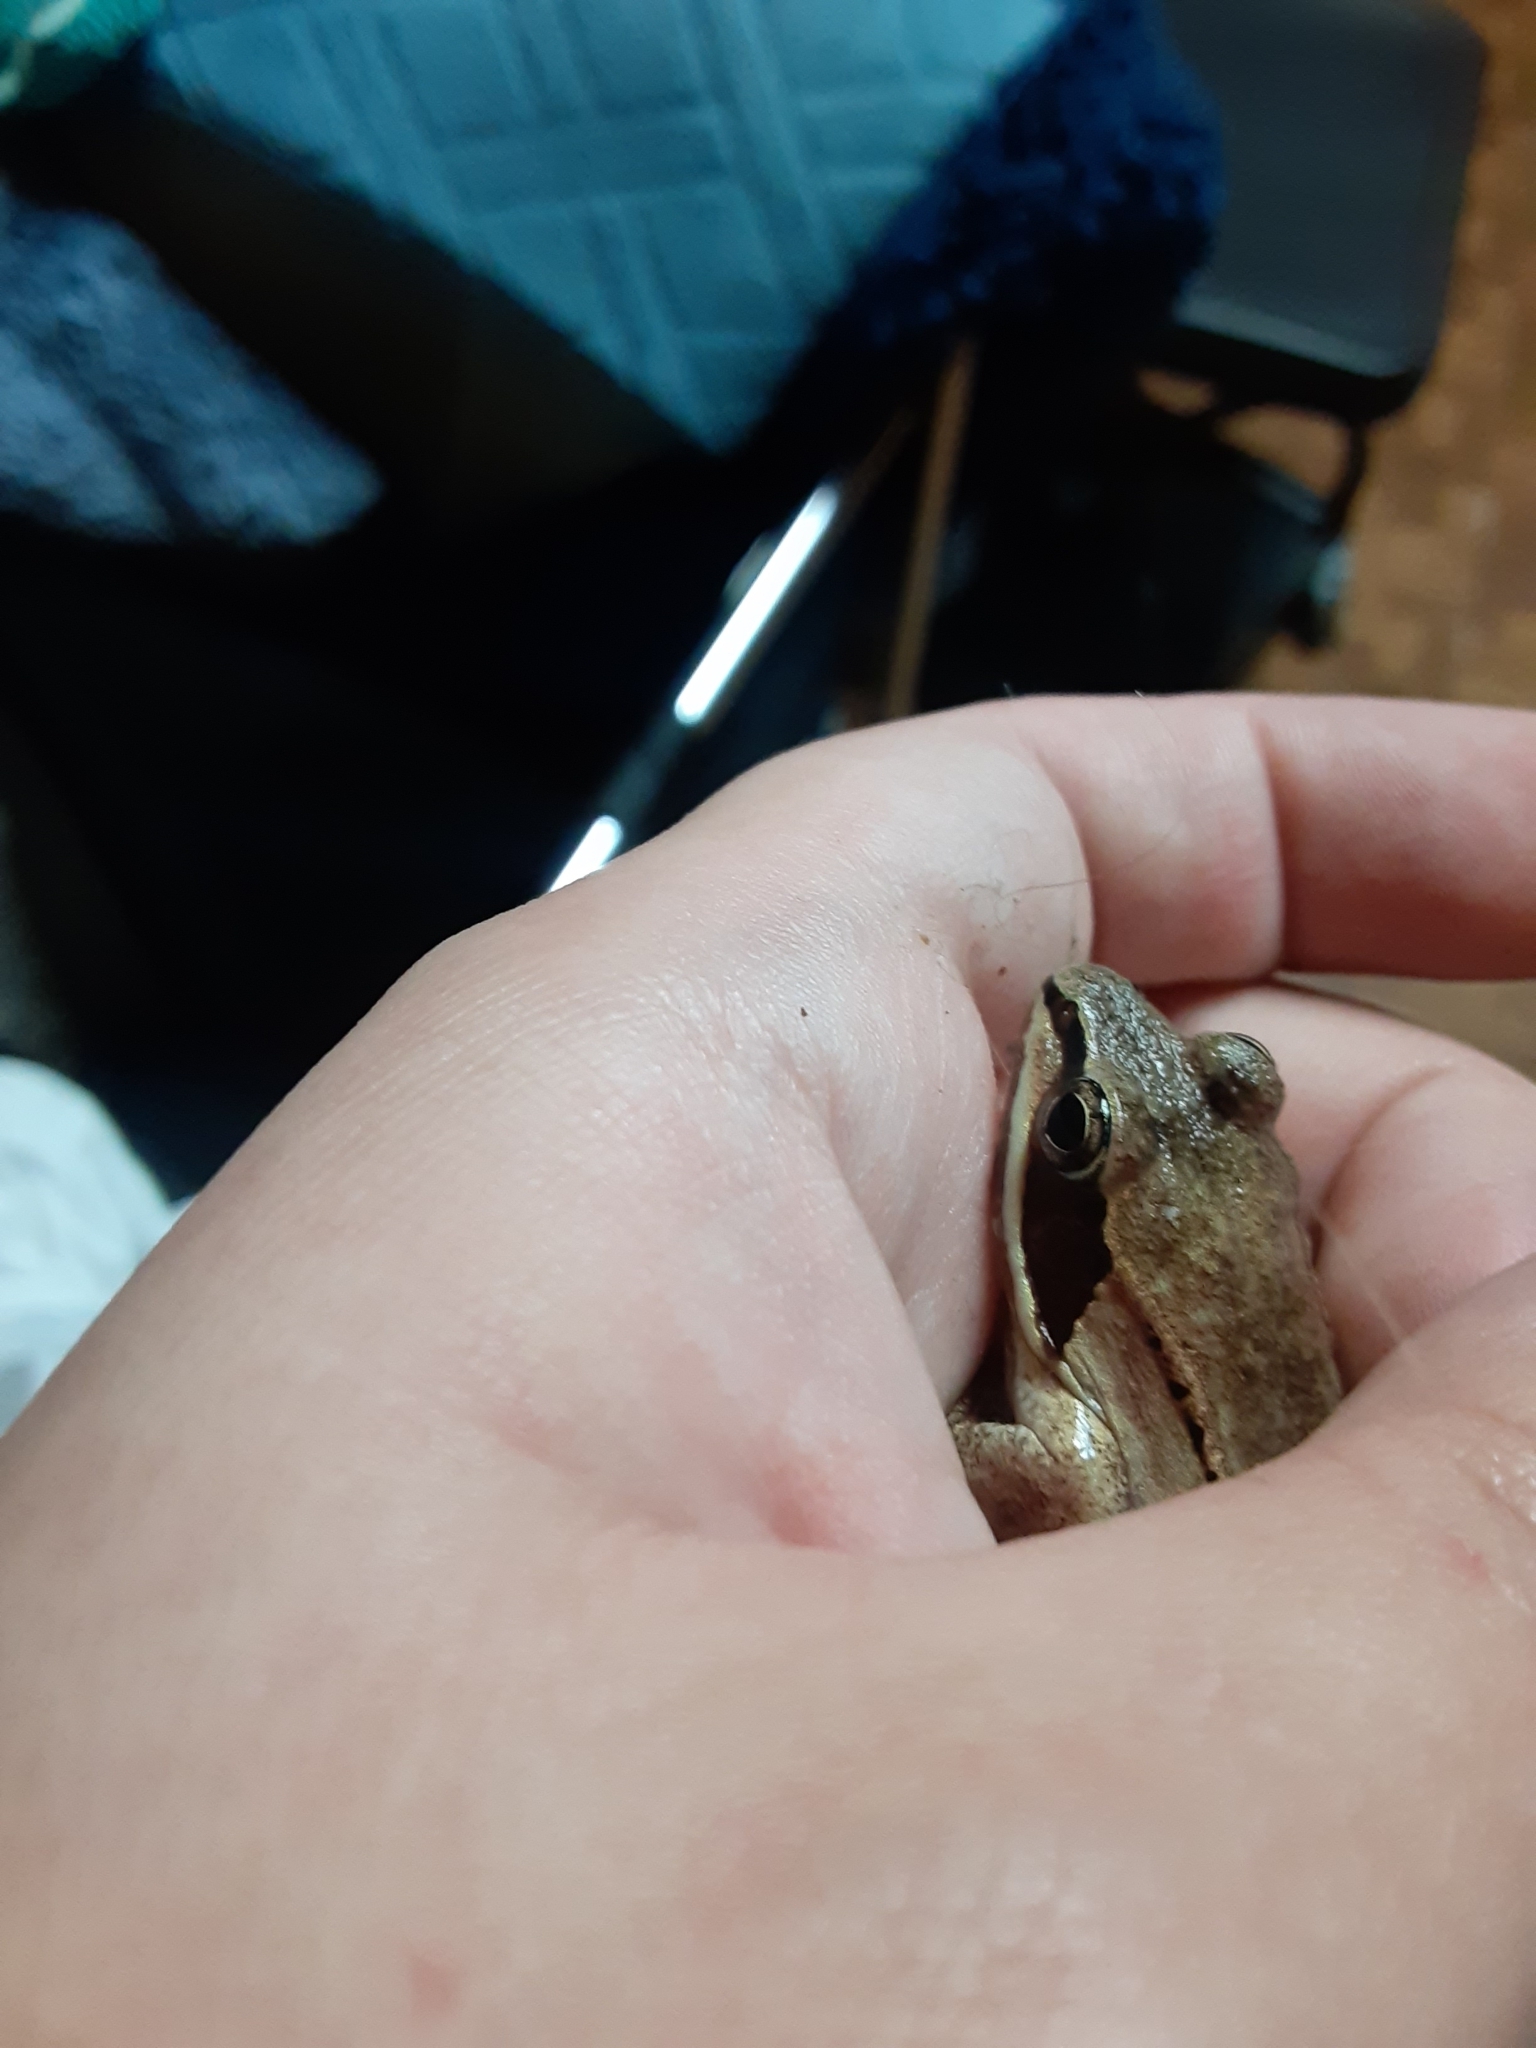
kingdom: Animalia
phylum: Chordata
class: Amphibia
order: Anura
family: Ranidae
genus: Lithobates
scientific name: Lithobates sylvaticus
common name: Wood frog
